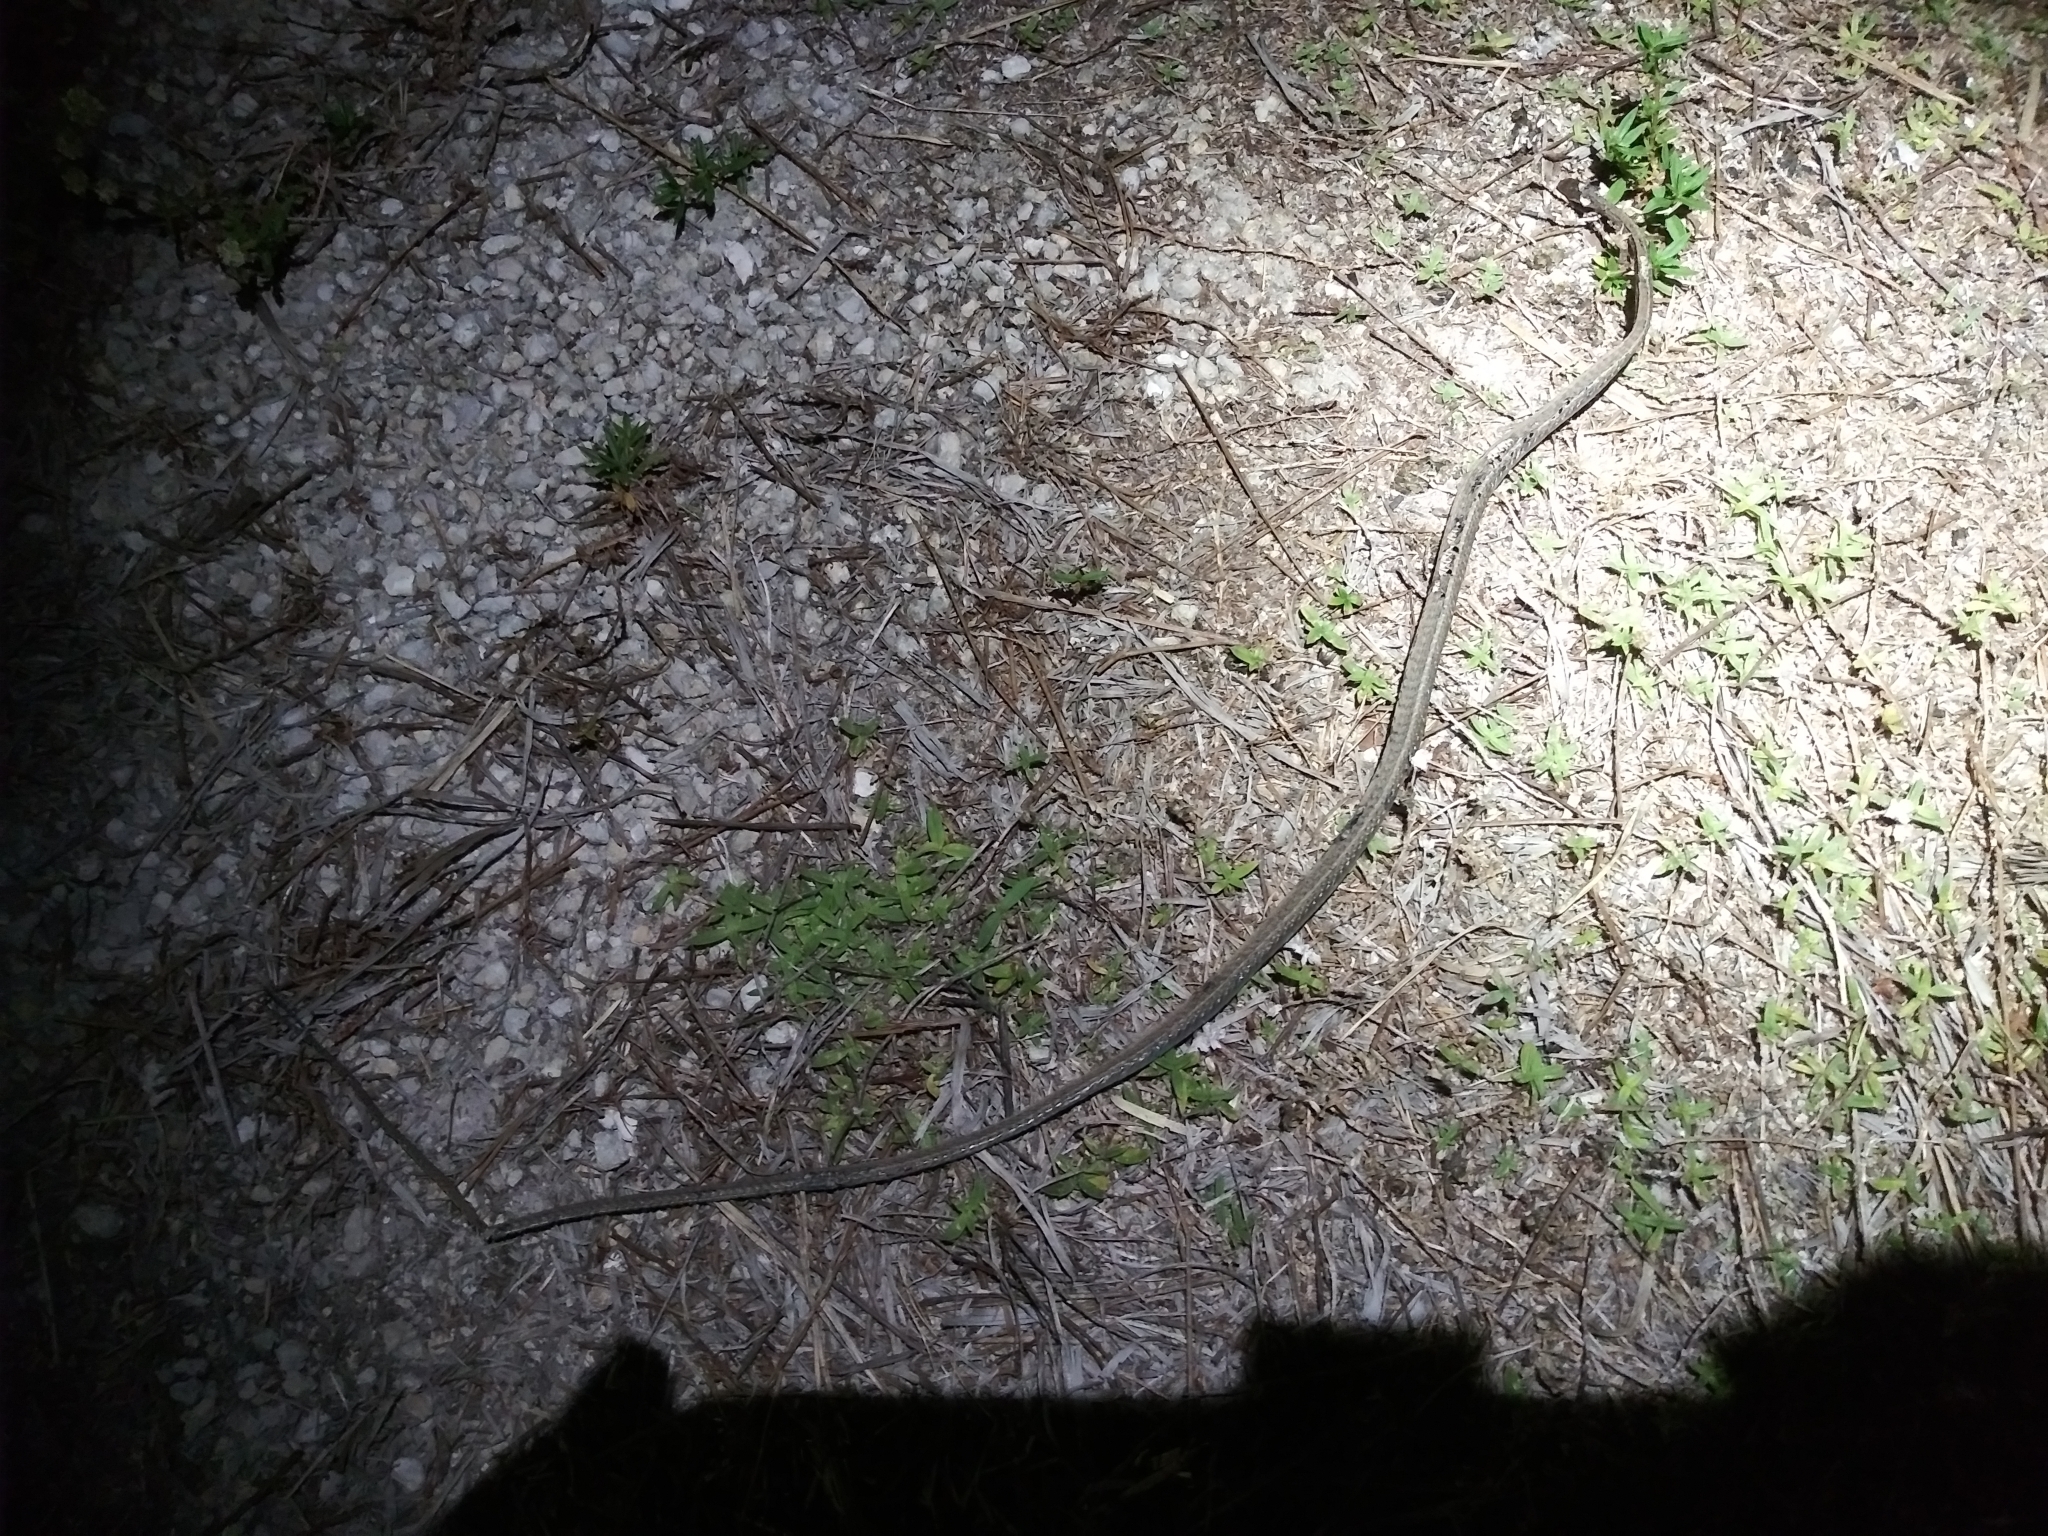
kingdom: Animalia
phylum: Chordata
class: Squamata
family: Colubridae
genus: Thamnophis
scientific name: Thamnophis saurita
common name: Eastern ribbonsnake
